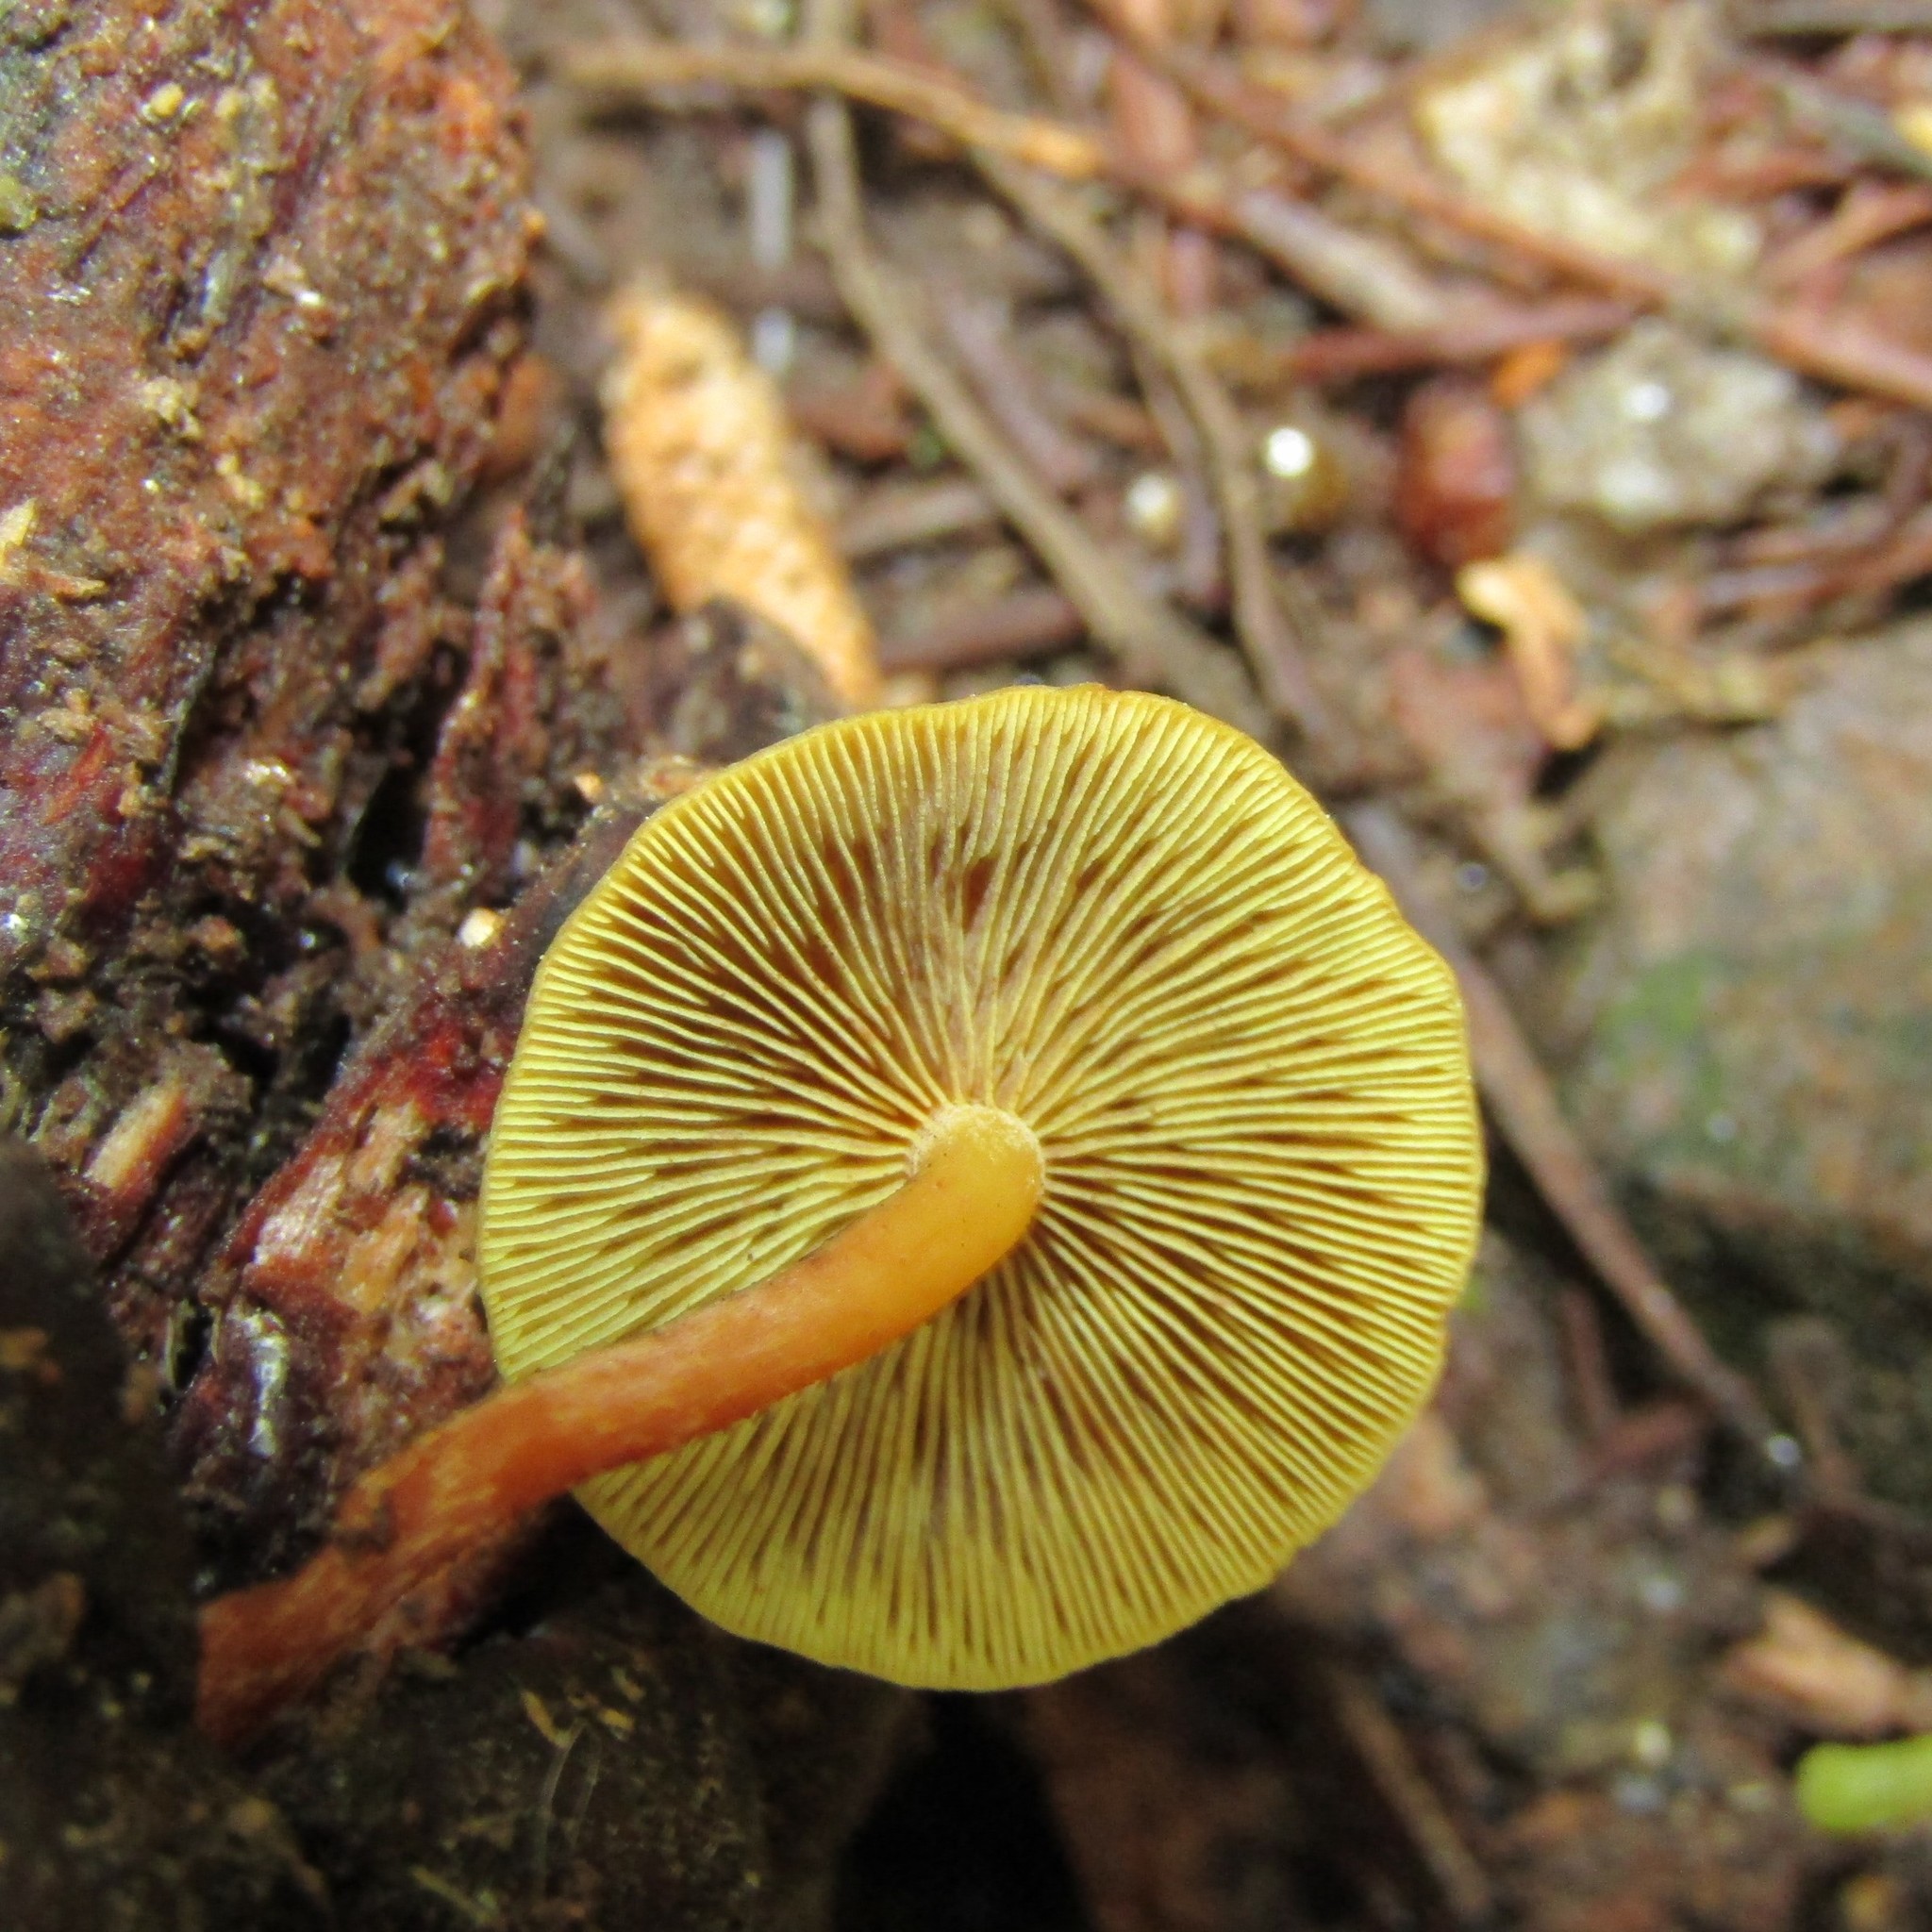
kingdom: Fungi
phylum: Basidiomycota
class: Agaricomycetes
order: Agaricales
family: Strophariaceae
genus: Hypholoma
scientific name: Hypholoma acutum
